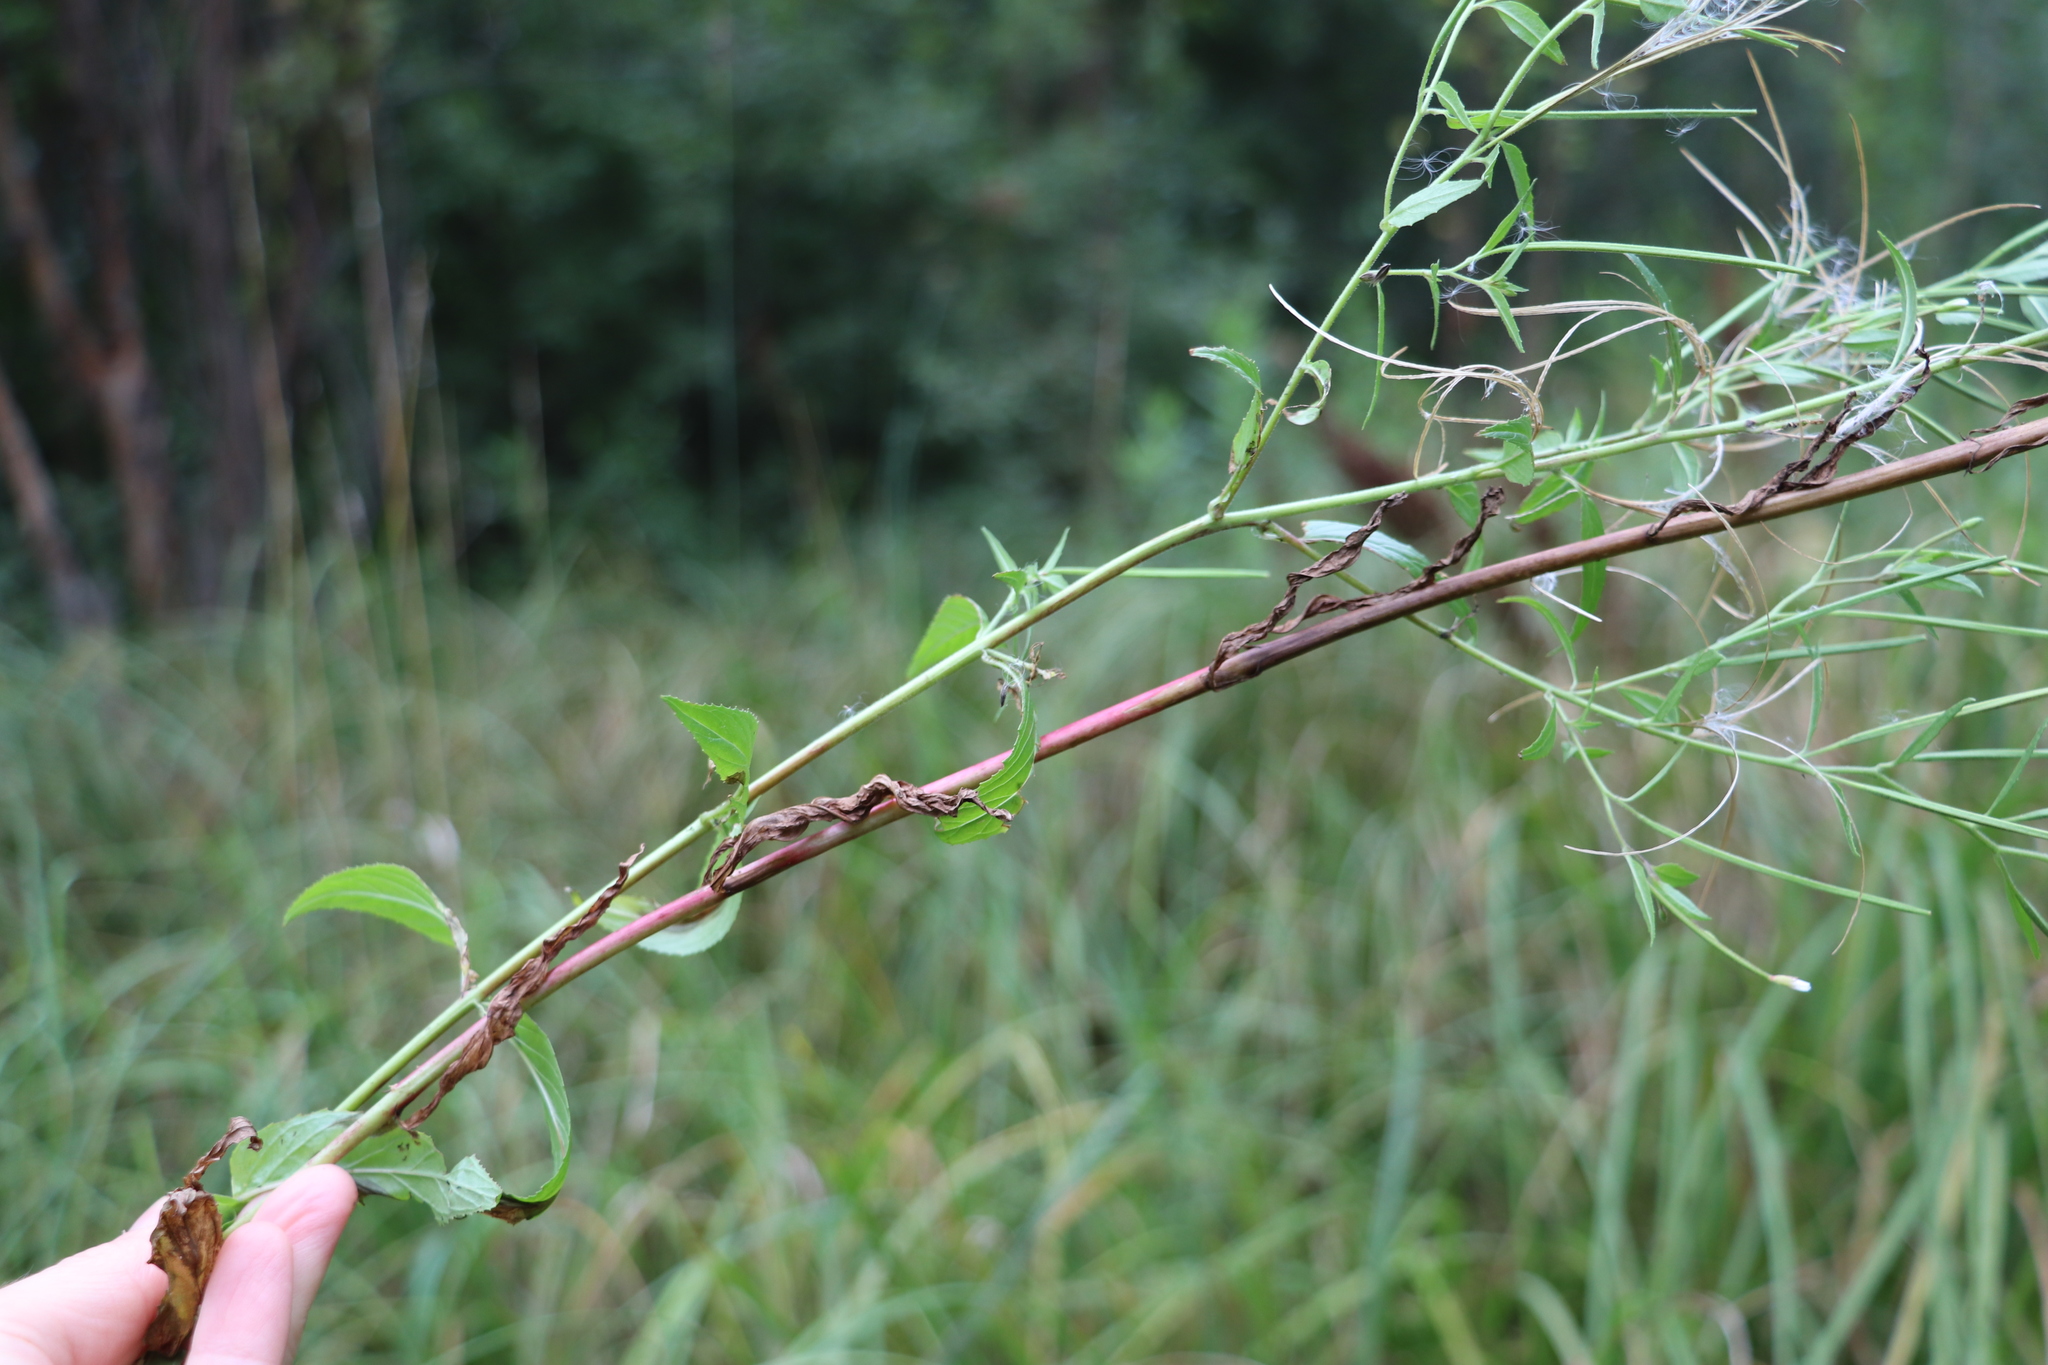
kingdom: Plantae
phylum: Tracheophyta
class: Magnoliopsida
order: Myrtales
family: Onagraceae
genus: Epilobium
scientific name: Epilobium pseudorubescens
